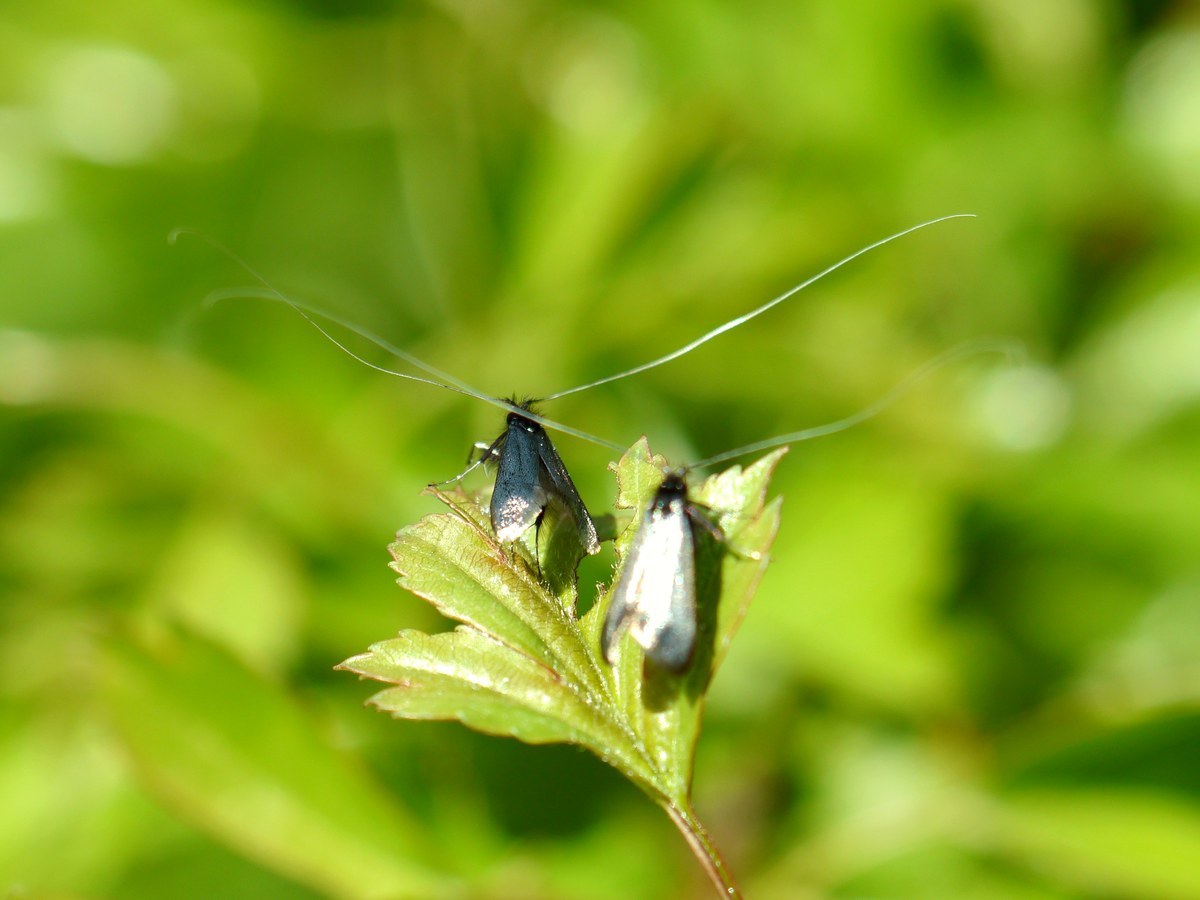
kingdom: Animalia
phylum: Arthropoda
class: Insecta
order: Lepidoptera
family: Adelidae
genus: Adela
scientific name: Adela viridella
